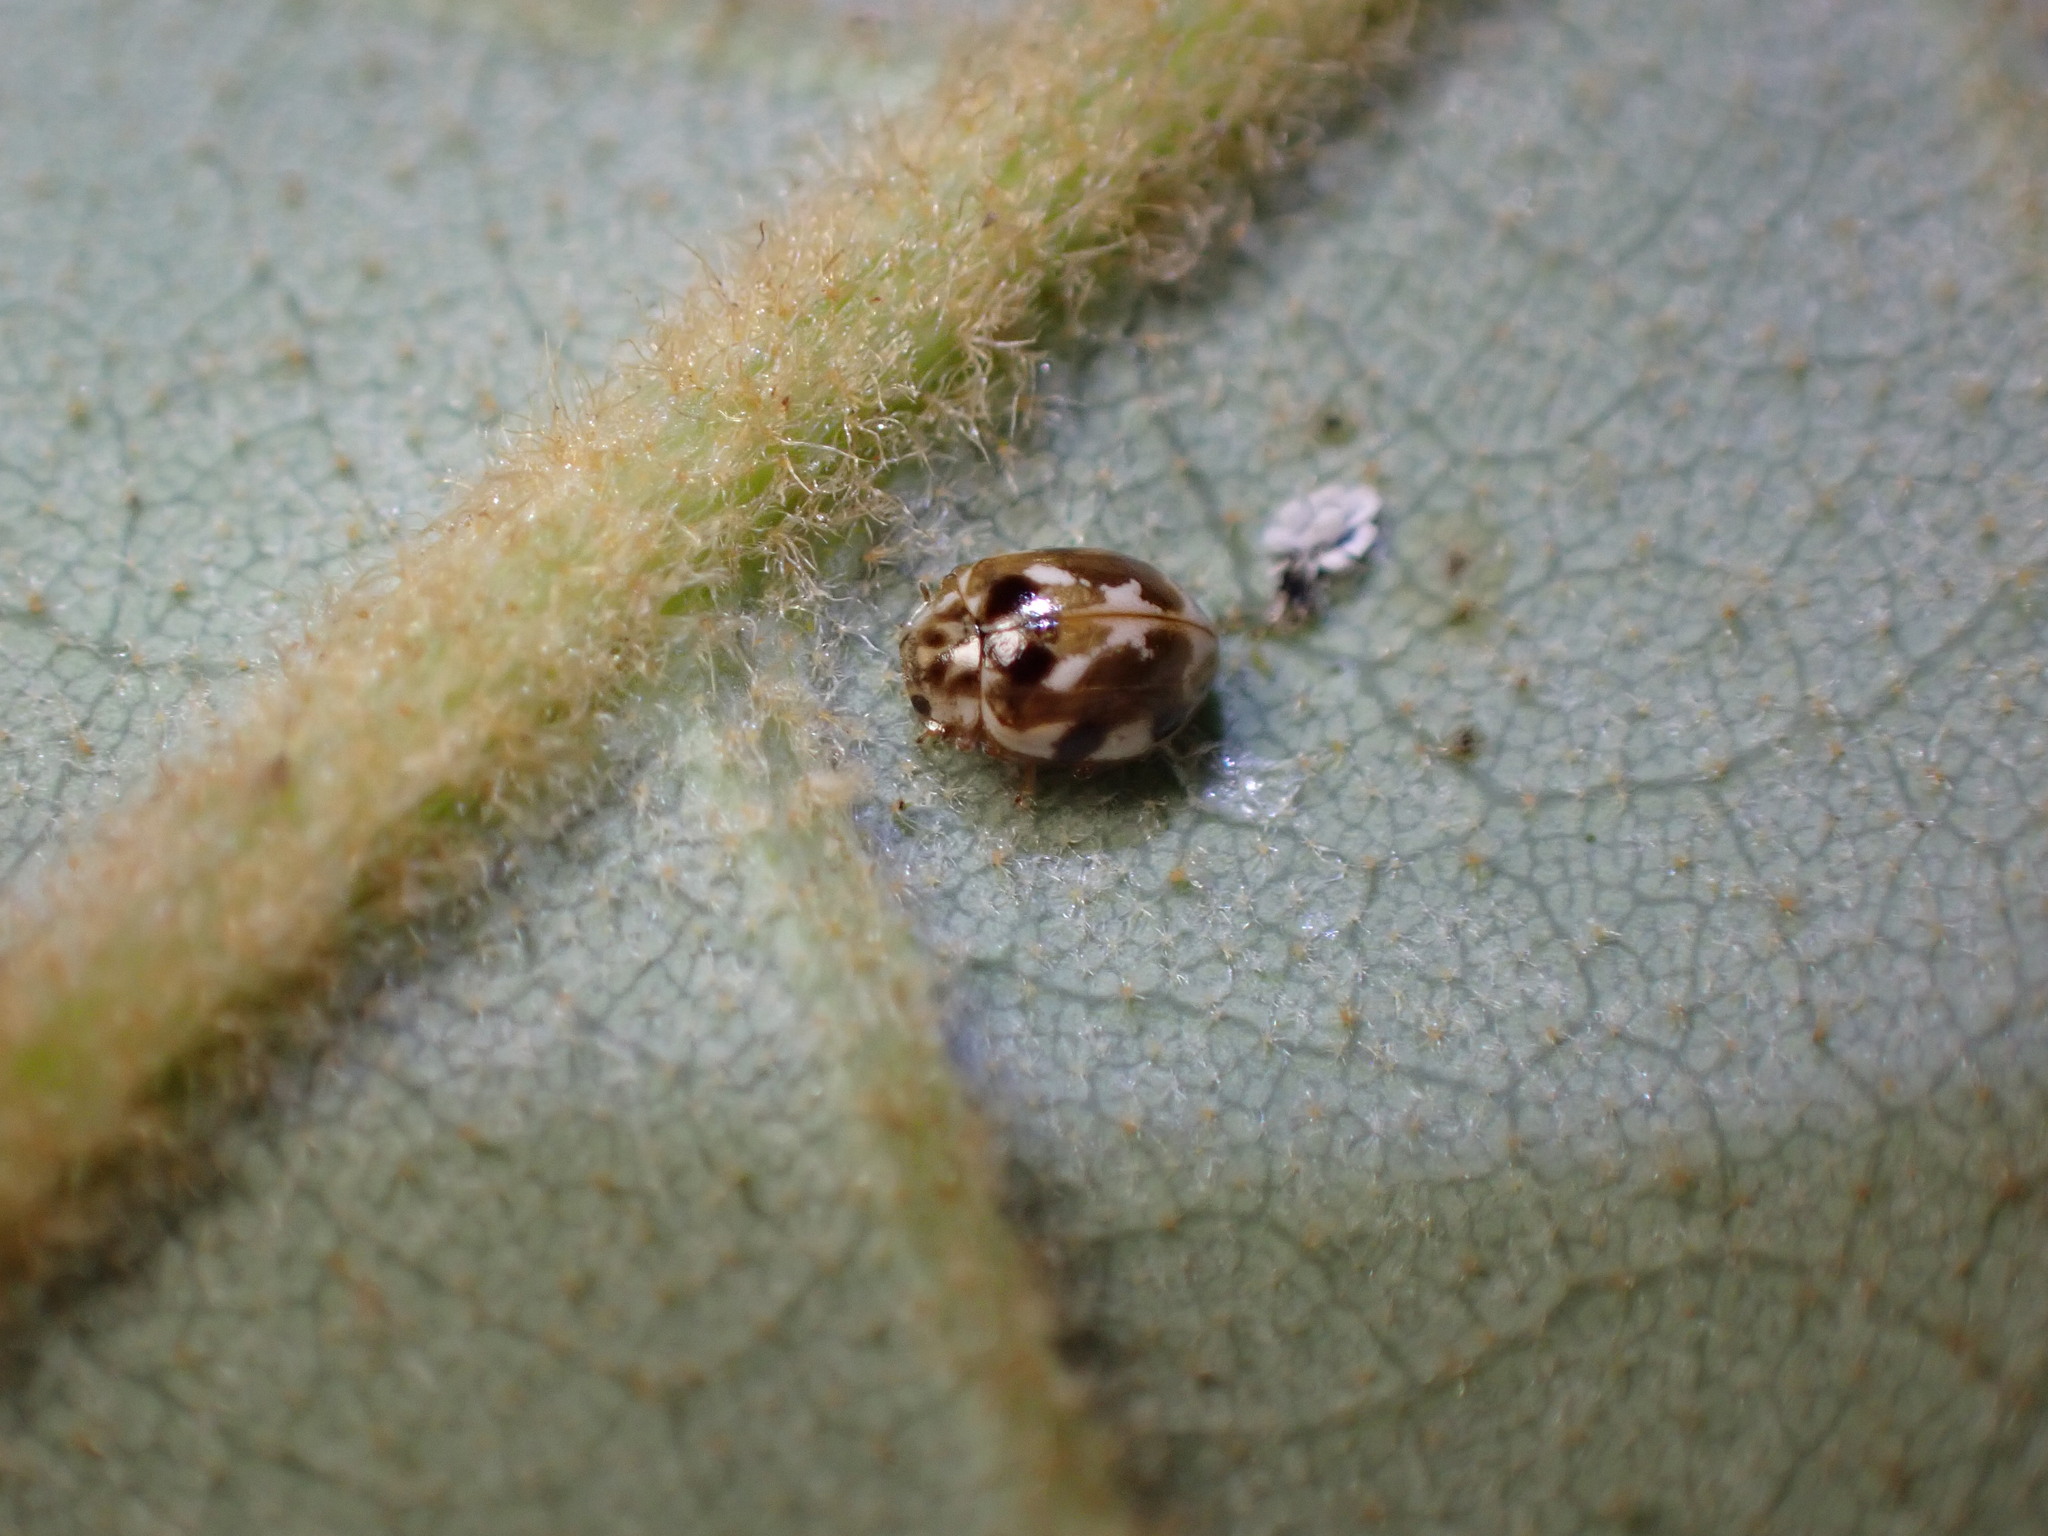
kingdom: Animalia
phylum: Arthropoda
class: Insecta
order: Coleoptera
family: Coccinellidae
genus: Psyllobora
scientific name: Psyllobora vigintimaculata
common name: Ladybird beetle
